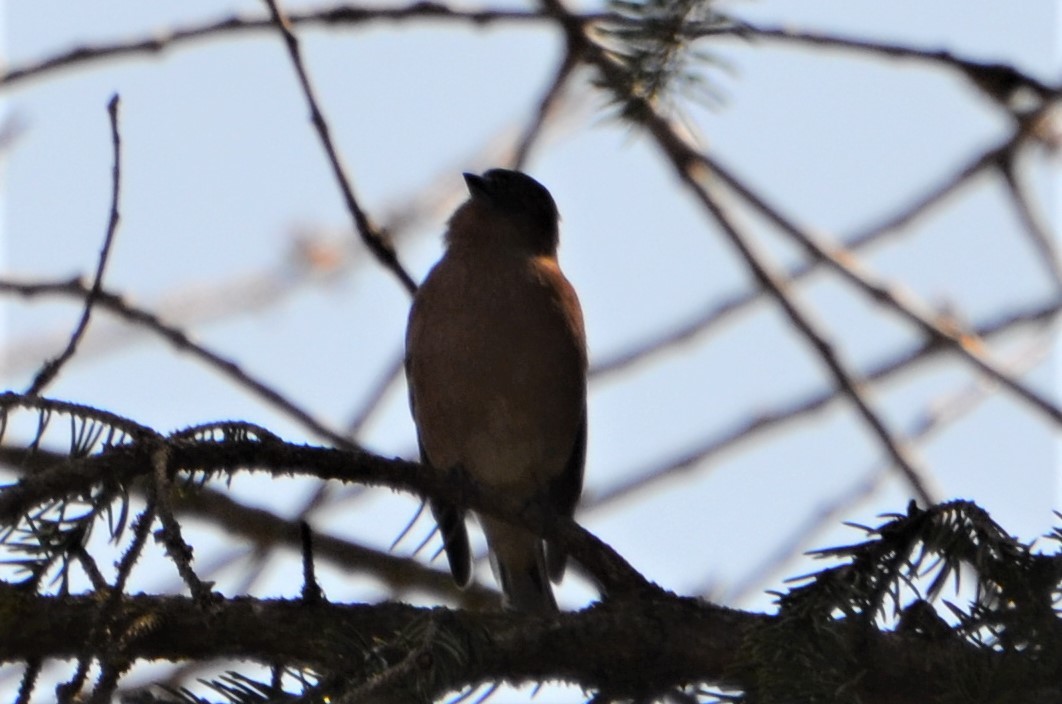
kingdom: Animalia
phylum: Chordata
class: Aves
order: Passeriformes
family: Fringillidae
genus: Fringilla
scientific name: Fringilla coelebs
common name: Common chaffinch
